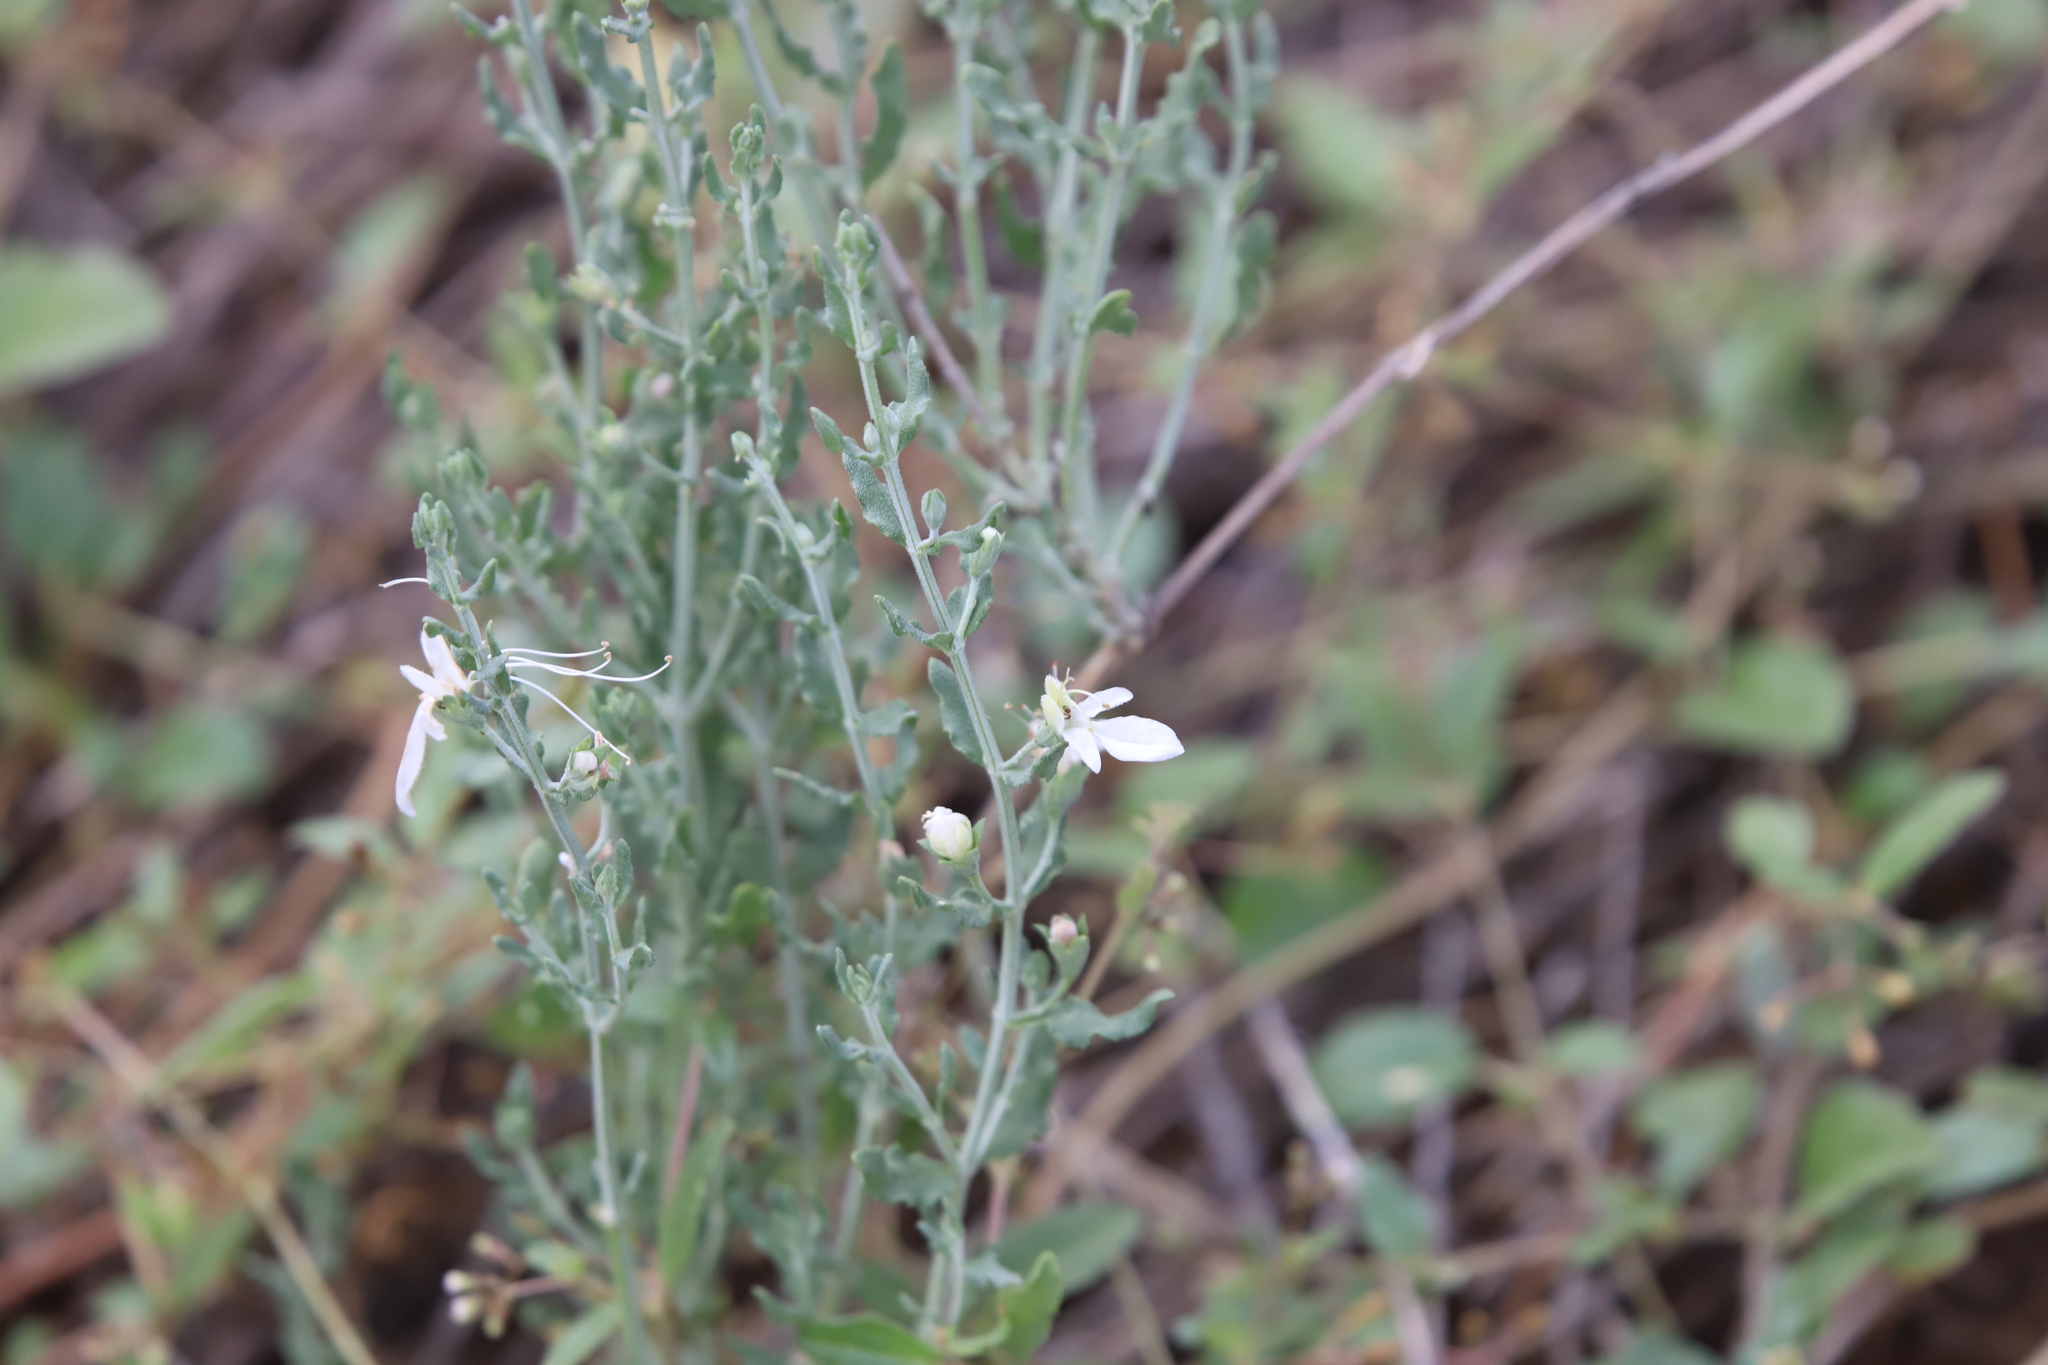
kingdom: Plantae
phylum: Tracheophyta
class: Magnoliopsida
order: Lamiales
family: Lamiaceae
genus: Teucrium
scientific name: Teucrium racemosum
